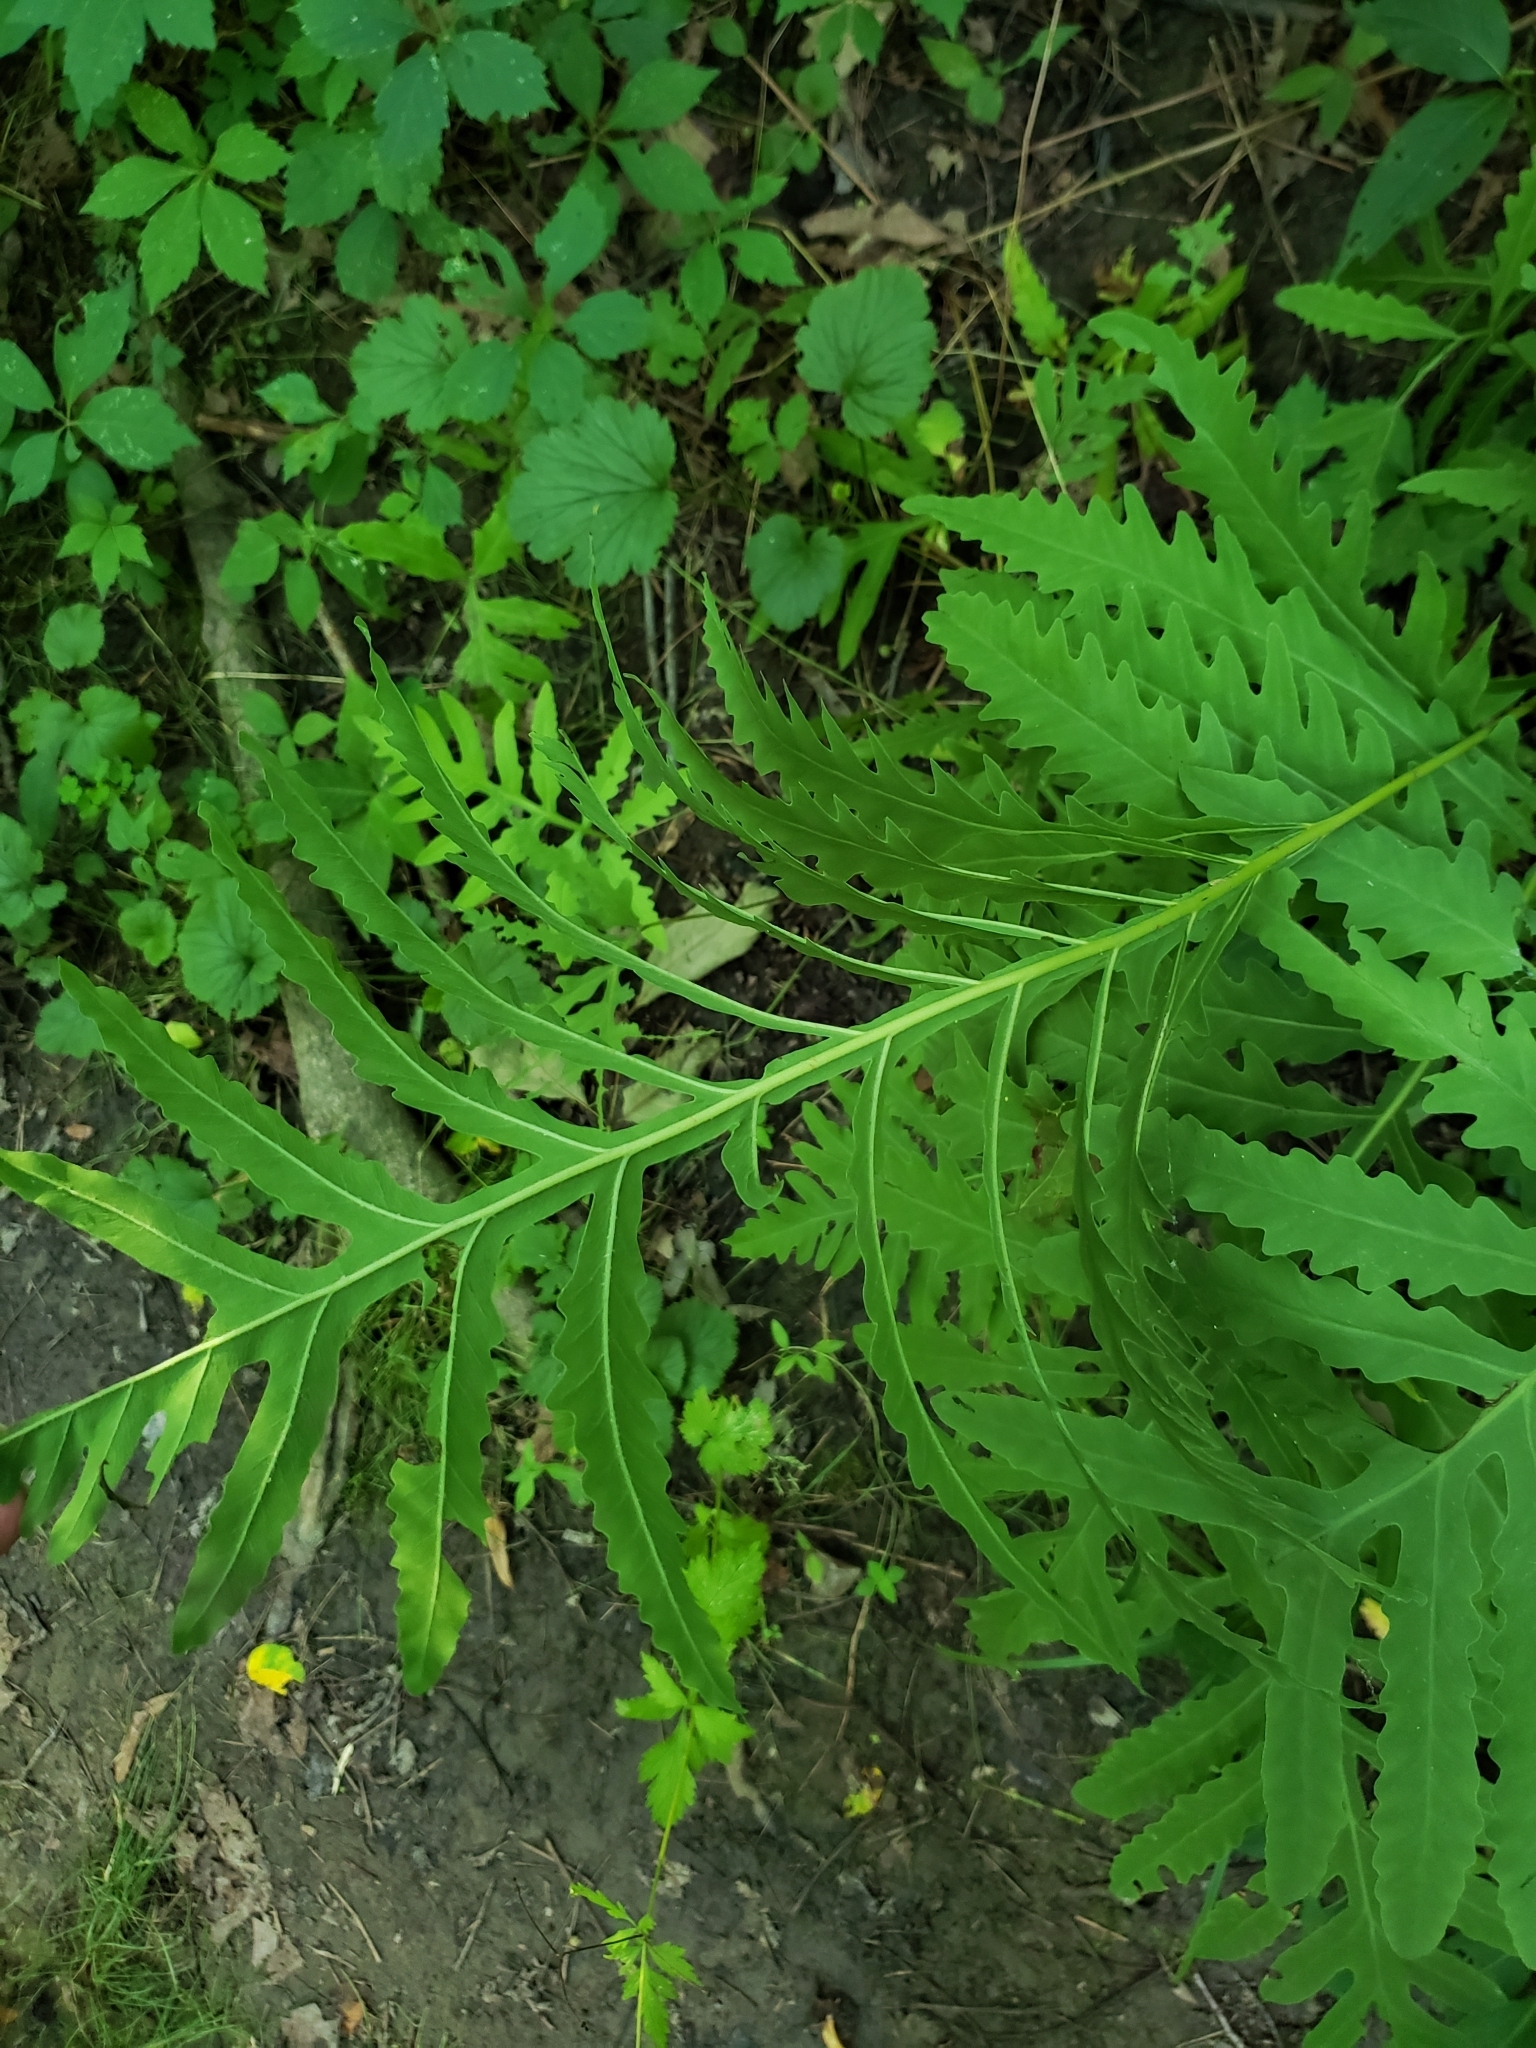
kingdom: Plantae
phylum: Tracheophyta
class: Polypodiopsida
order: Polypodiales
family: Onocleaceae
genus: Onoclea
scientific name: Onoclea sensibilis
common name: Sensitive fern
